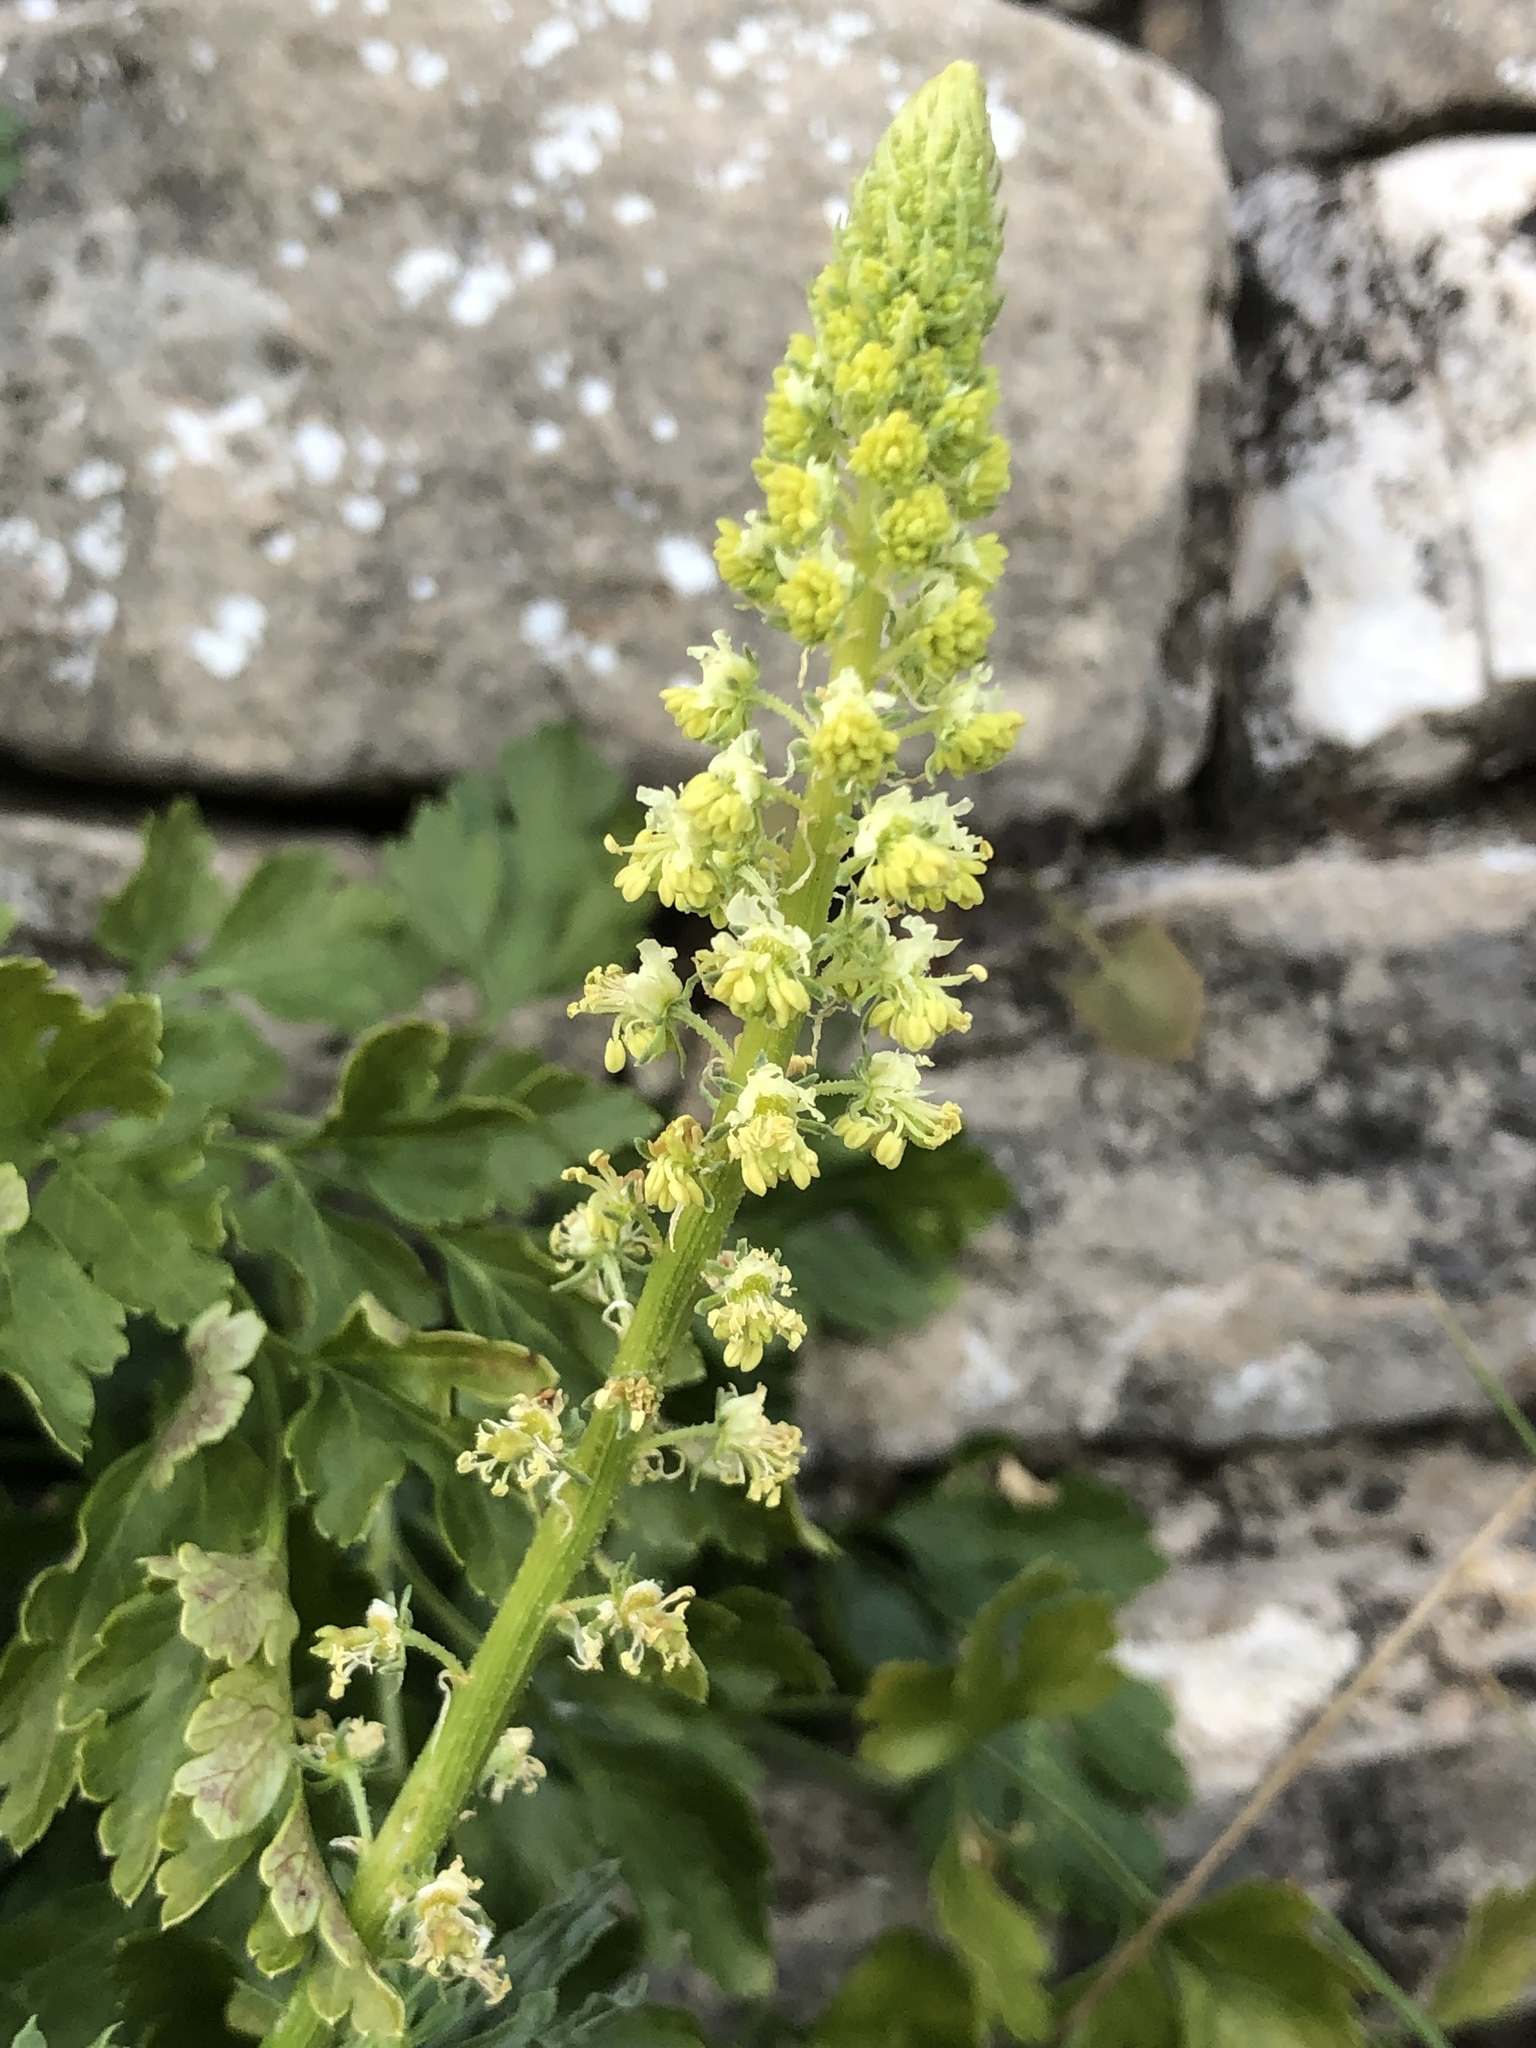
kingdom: Plantae
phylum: Tracheophyta
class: Magnoliopsida
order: Brassicales
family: Resedaceae
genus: Reseda
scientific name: Reseda lutea
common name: Wild mignonette
